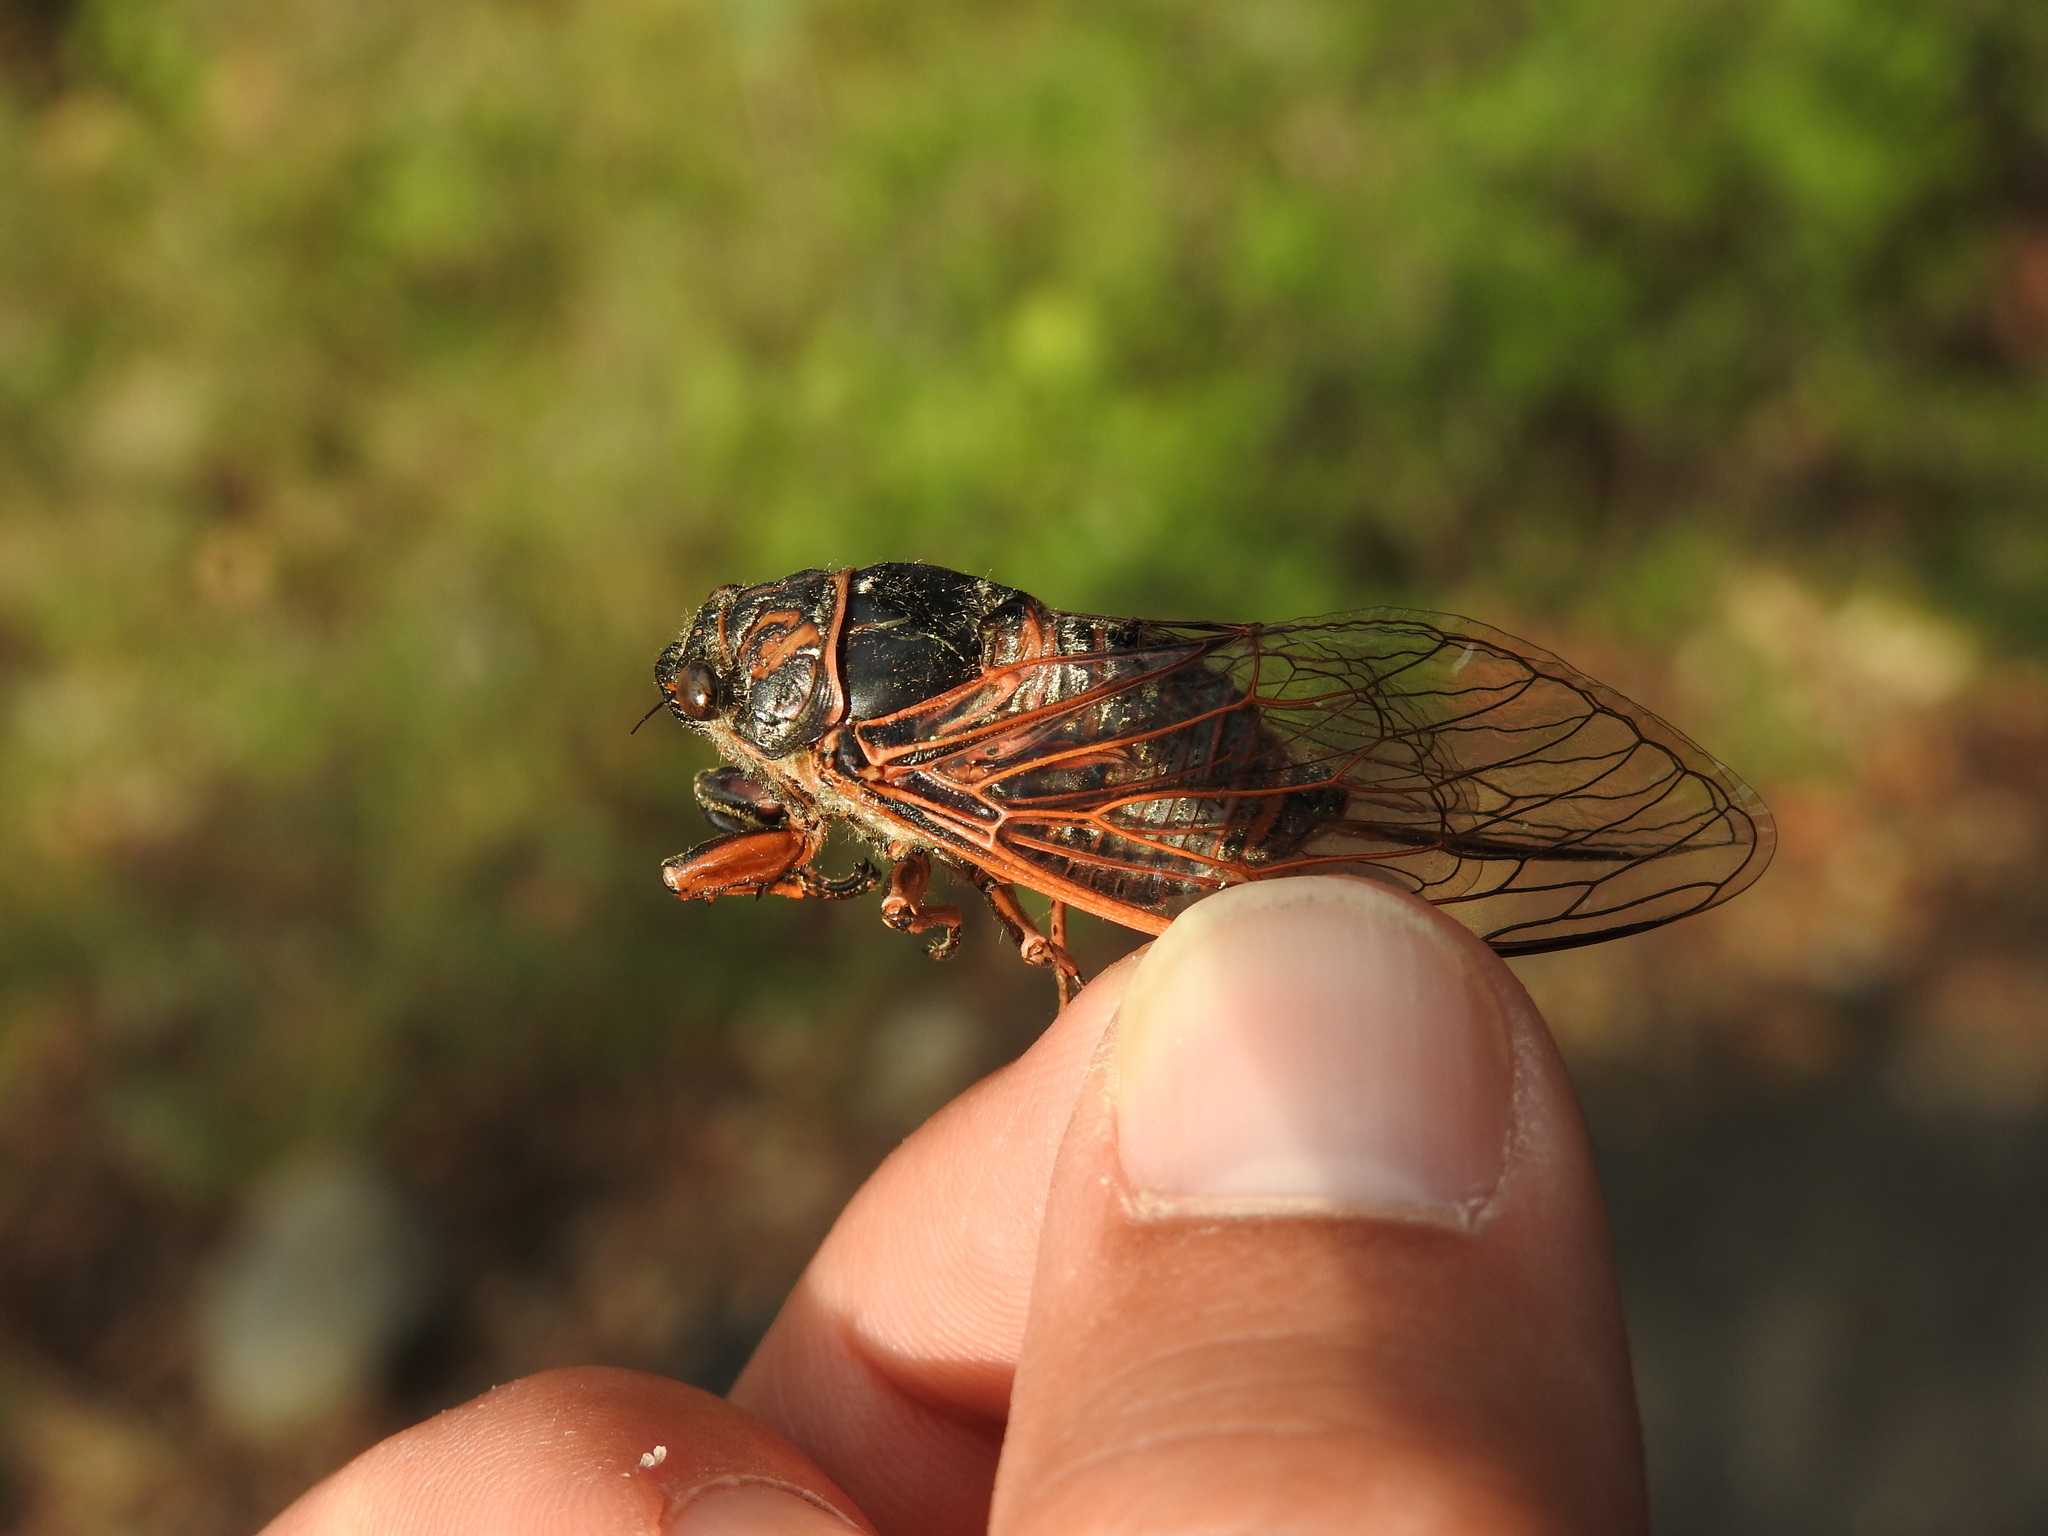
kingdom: Animalia
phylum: Arthropoda
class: Insecta
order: Hemiptera
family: Cicadidae
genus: Tibicina
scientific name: Tibicina haematodes
